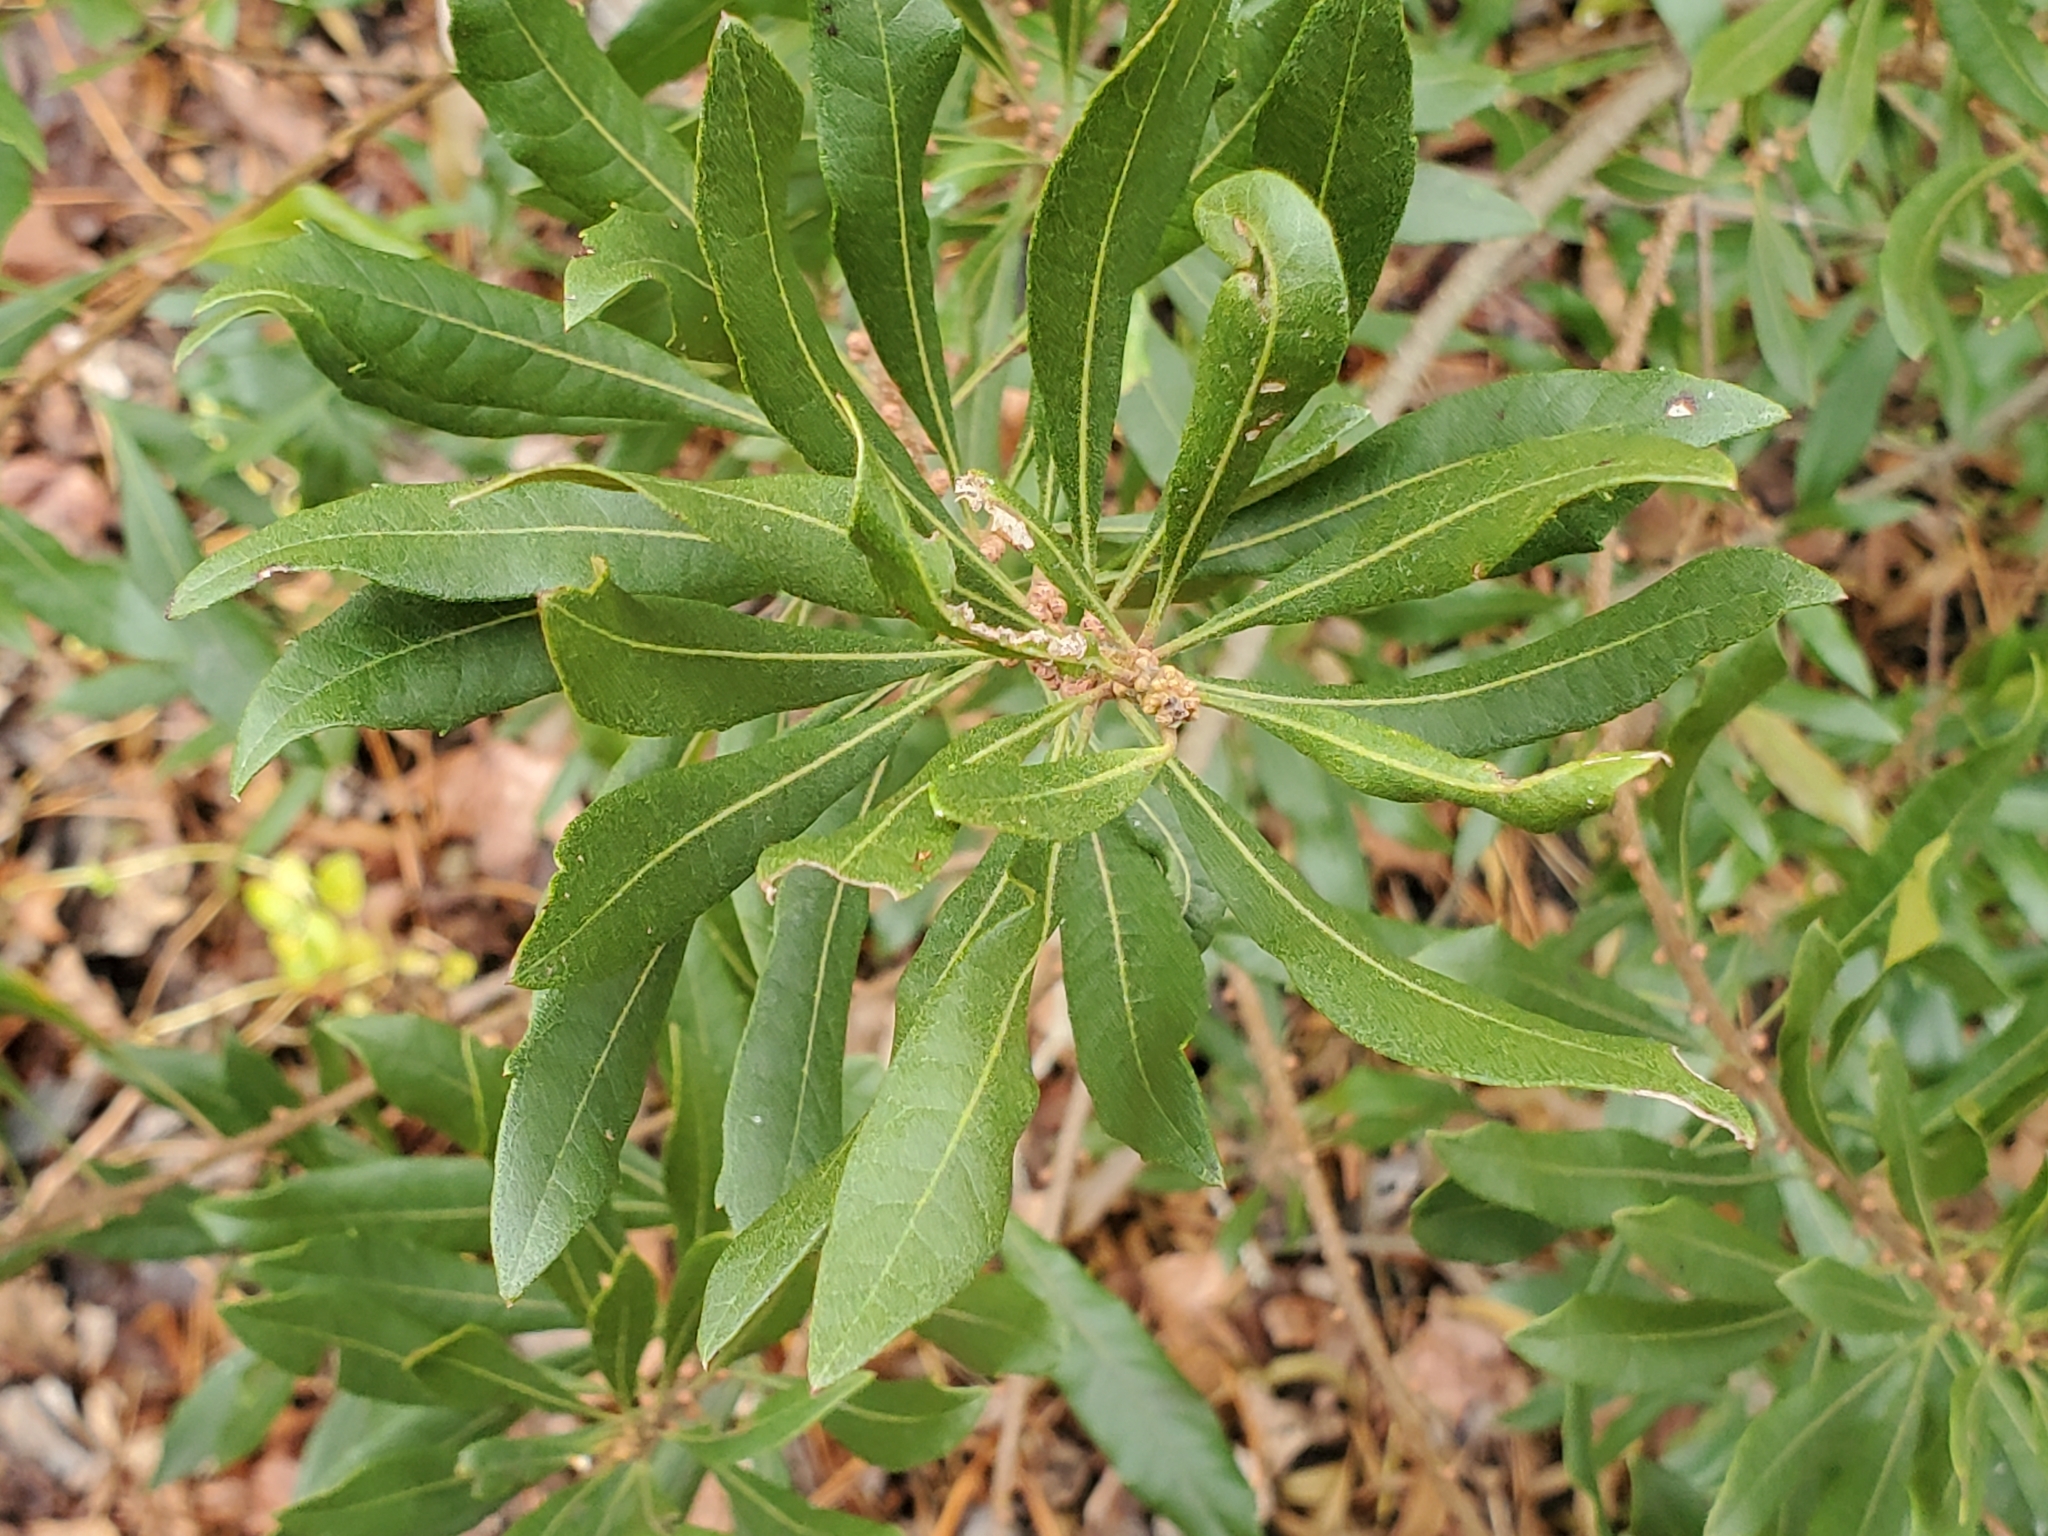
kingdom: Plantae
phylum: Tracheophyta
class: Magnoliopsida
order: Fagales
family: Myricaceae
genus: Morella
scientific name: Morella cerifera
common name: Wax myrtle
